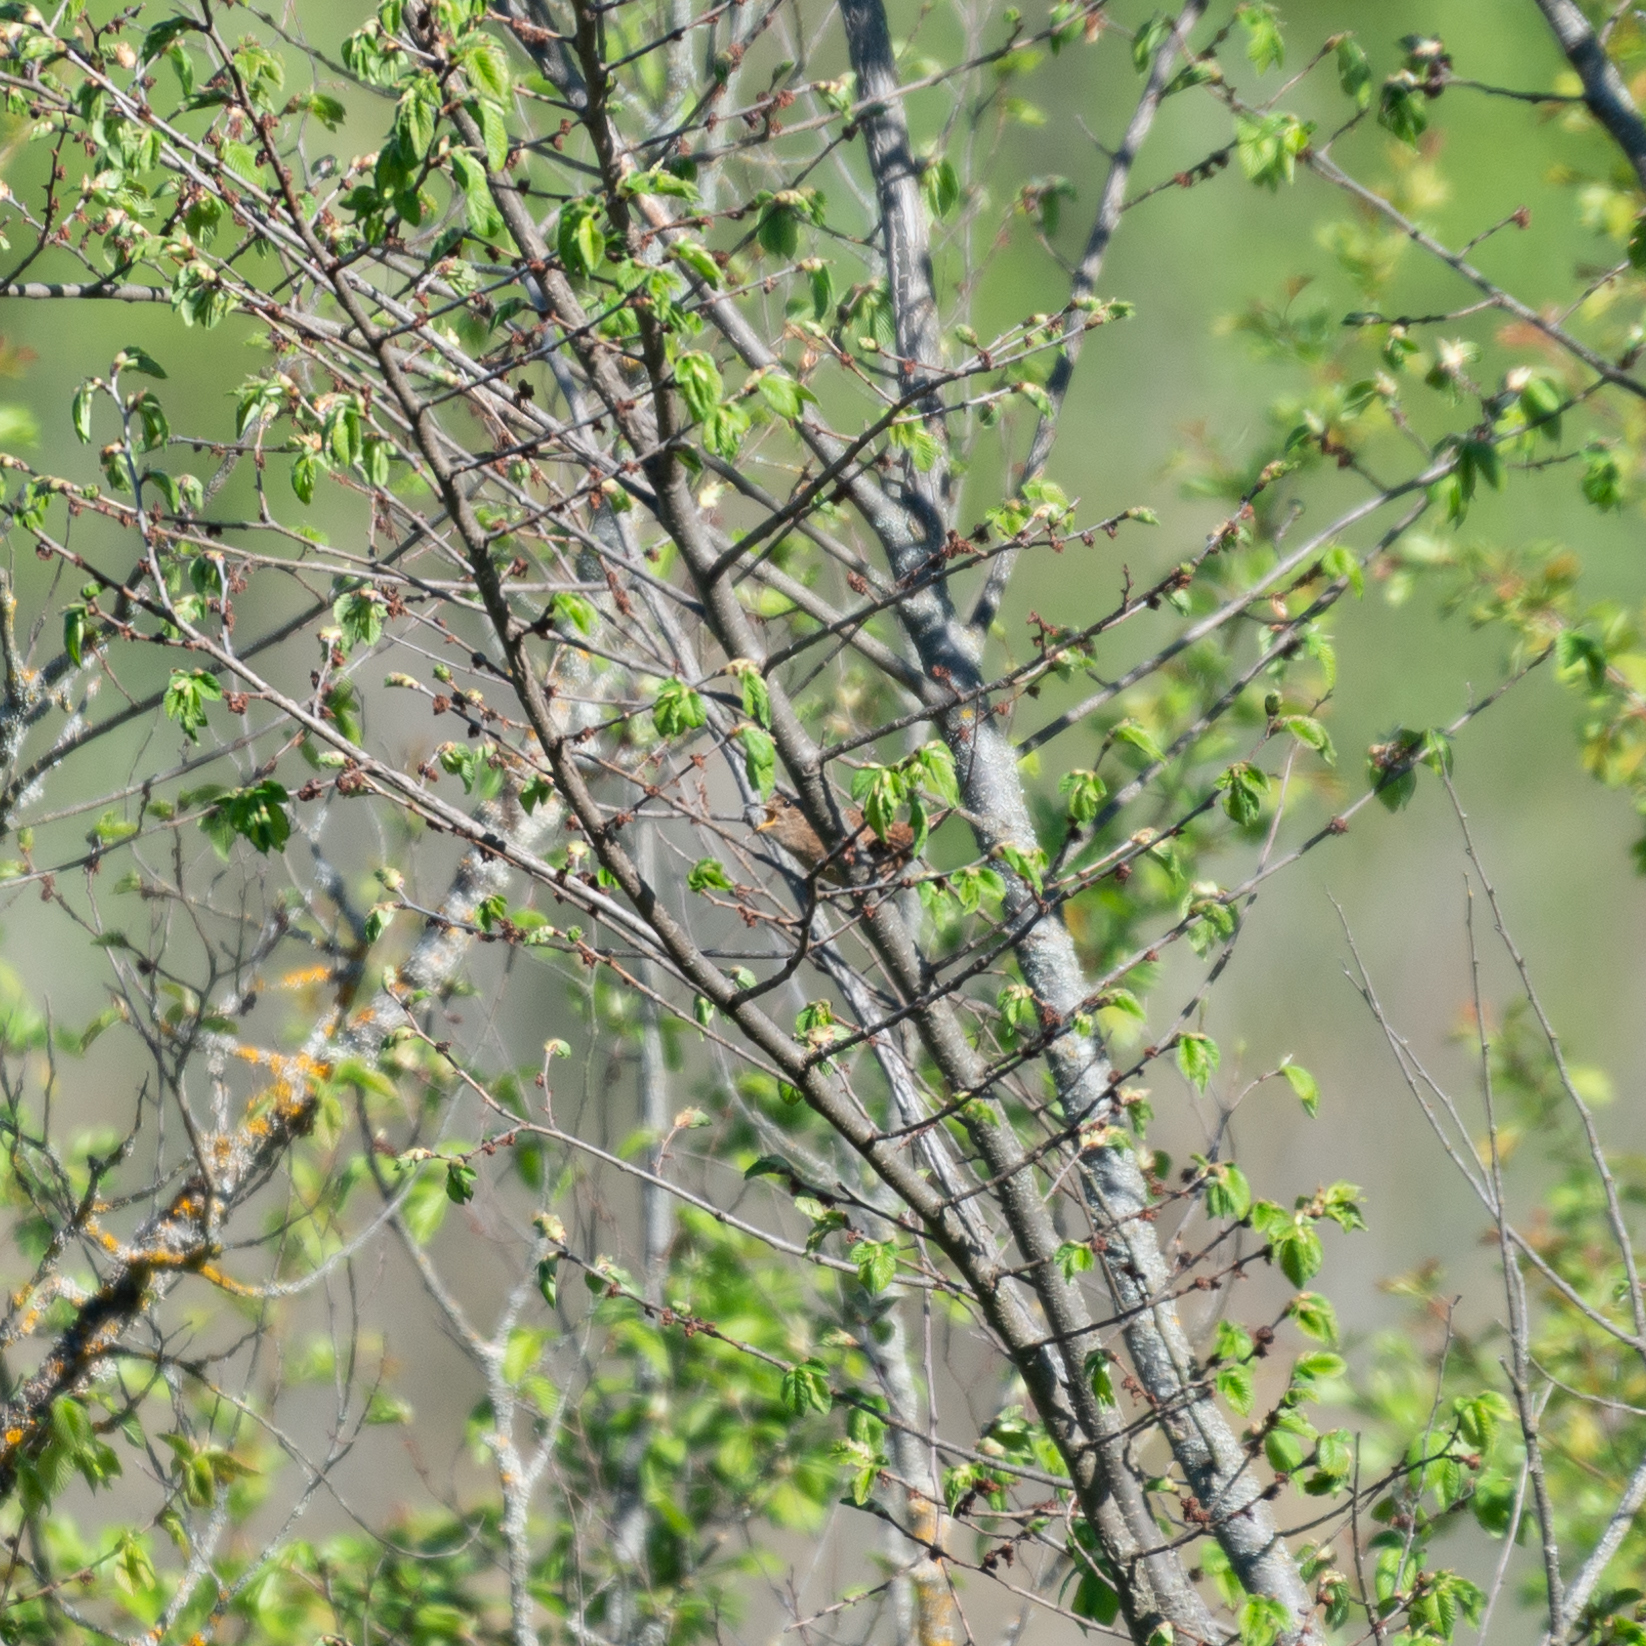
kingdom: Animalia
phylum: Chordata
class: Aves
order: Passeriformes
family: Troglodytidae
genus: Troglodytes
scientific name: Troglodytes troglodytes
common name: Eurasian wren
